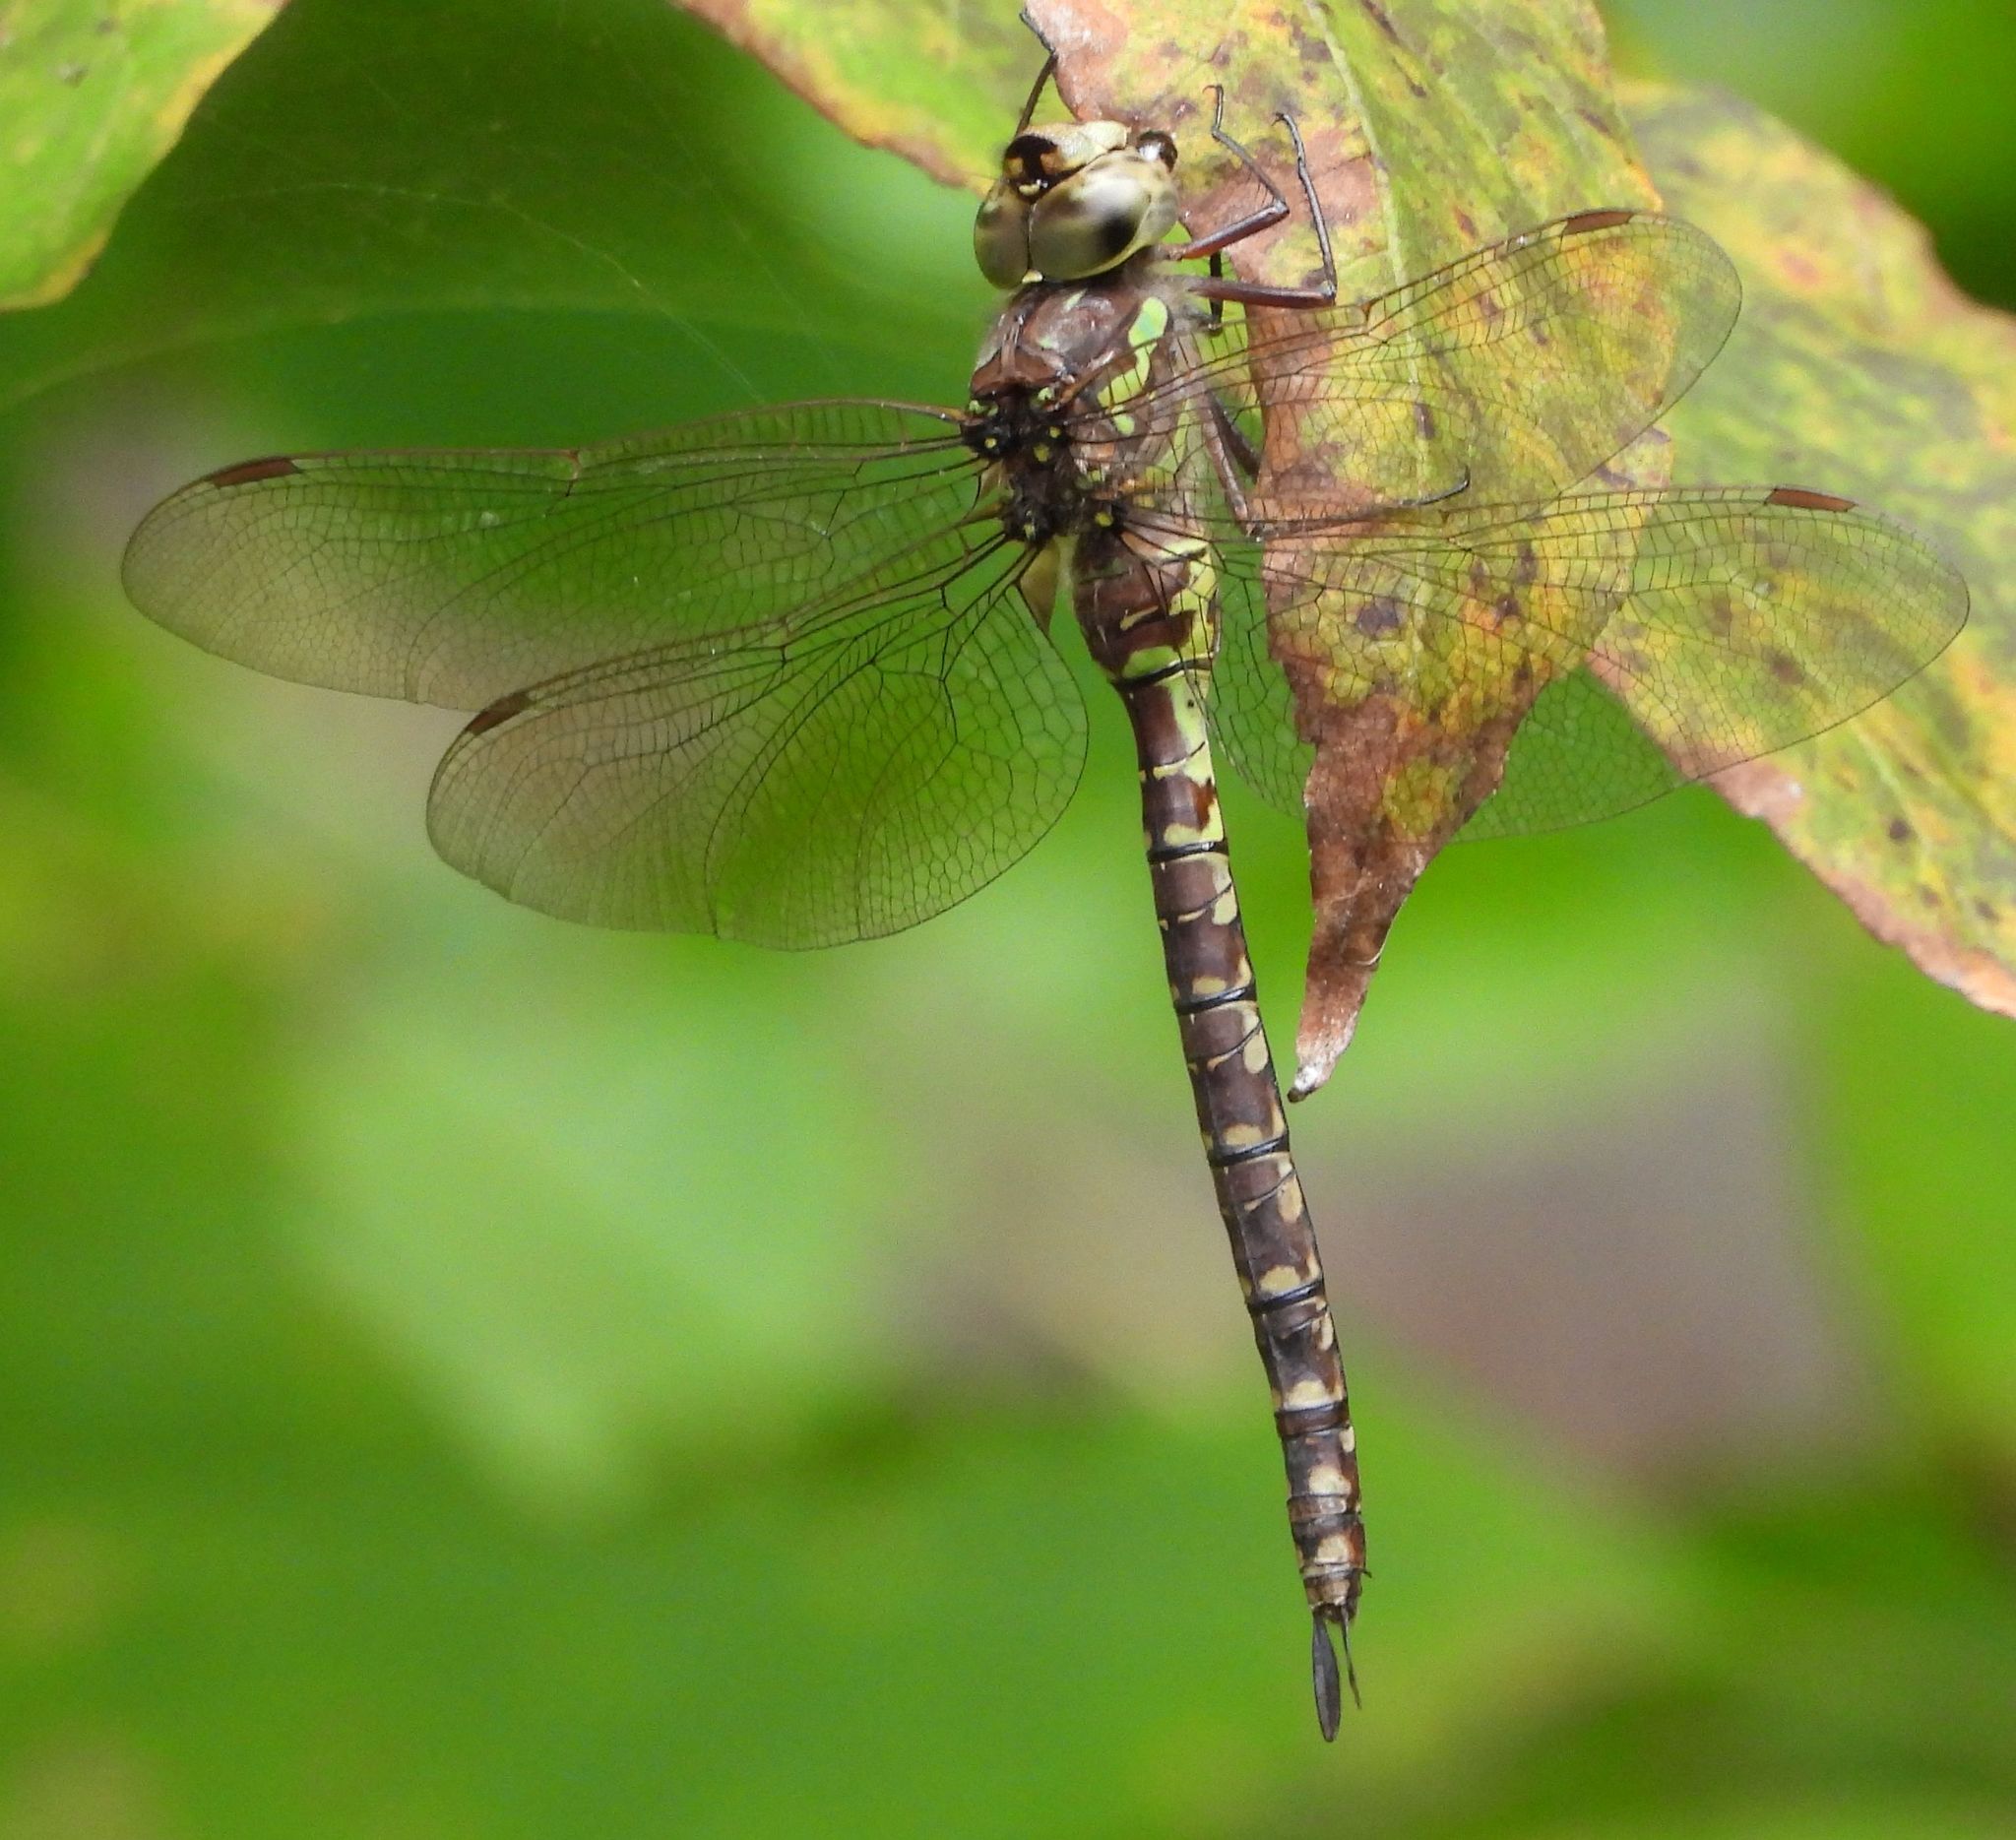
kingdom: Animalia
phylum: Arthropoda
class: Insecta
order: Odonata
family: Aeshnidae
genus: Aeshna
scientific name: Aeshna canadensis
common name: Canada darner
